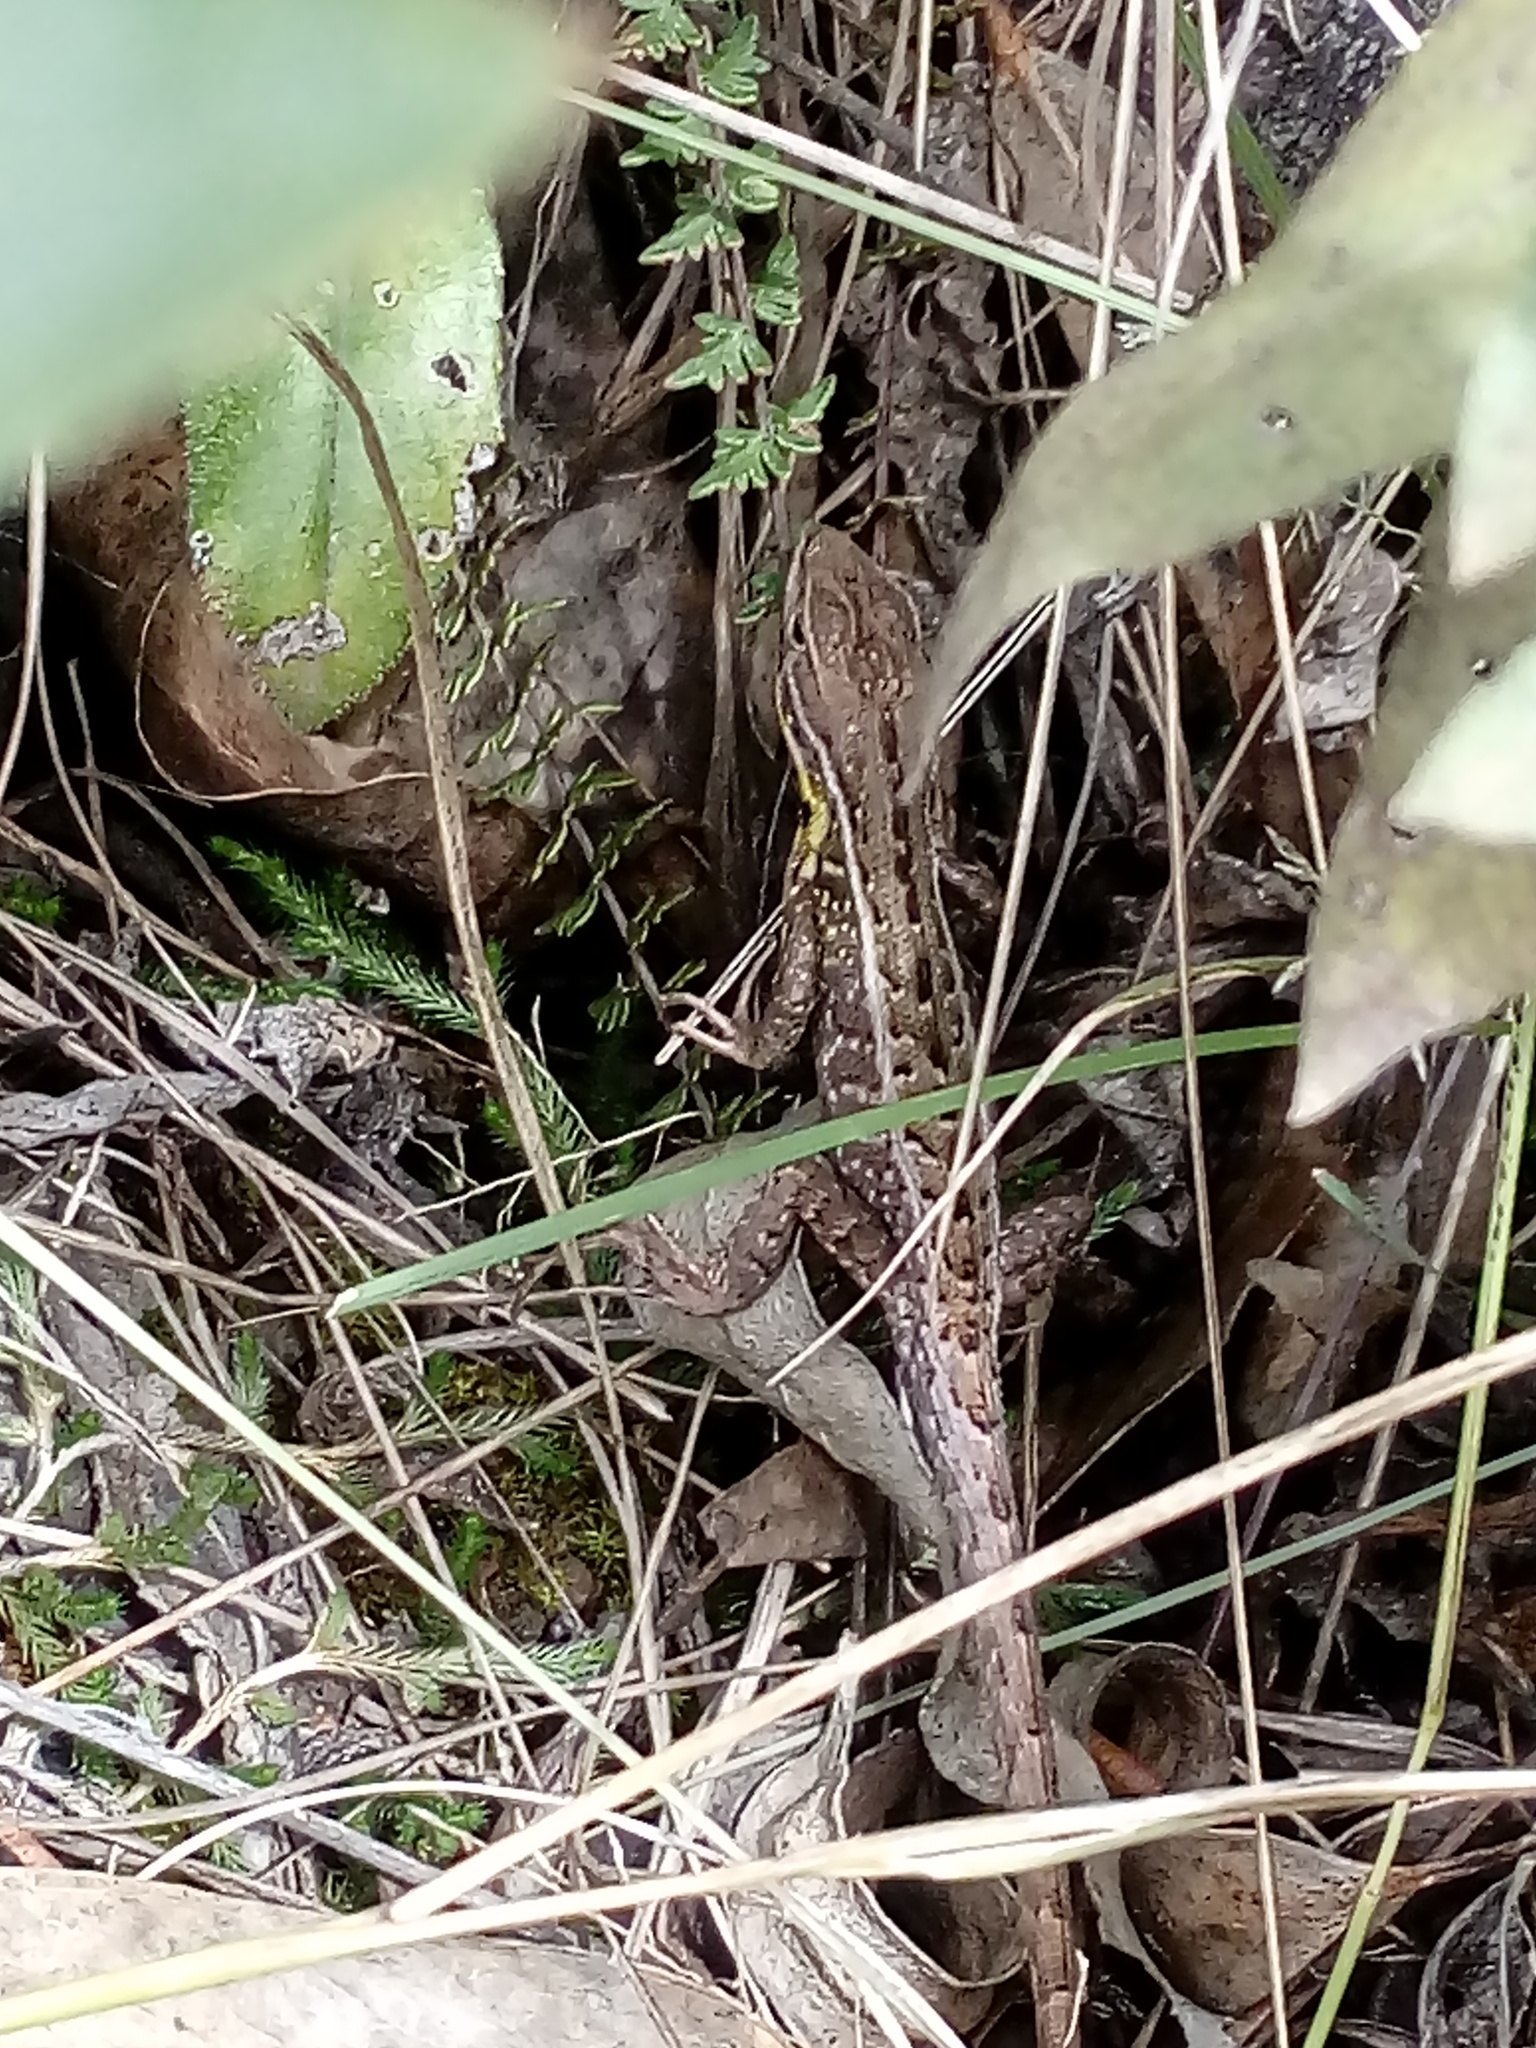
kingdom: Animalia
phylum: Chordata
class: Squamata
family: Tropiduridae
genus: Stenocercus
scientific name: Stenocercus trachycephalus
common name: Duméril's whorltail iguana
